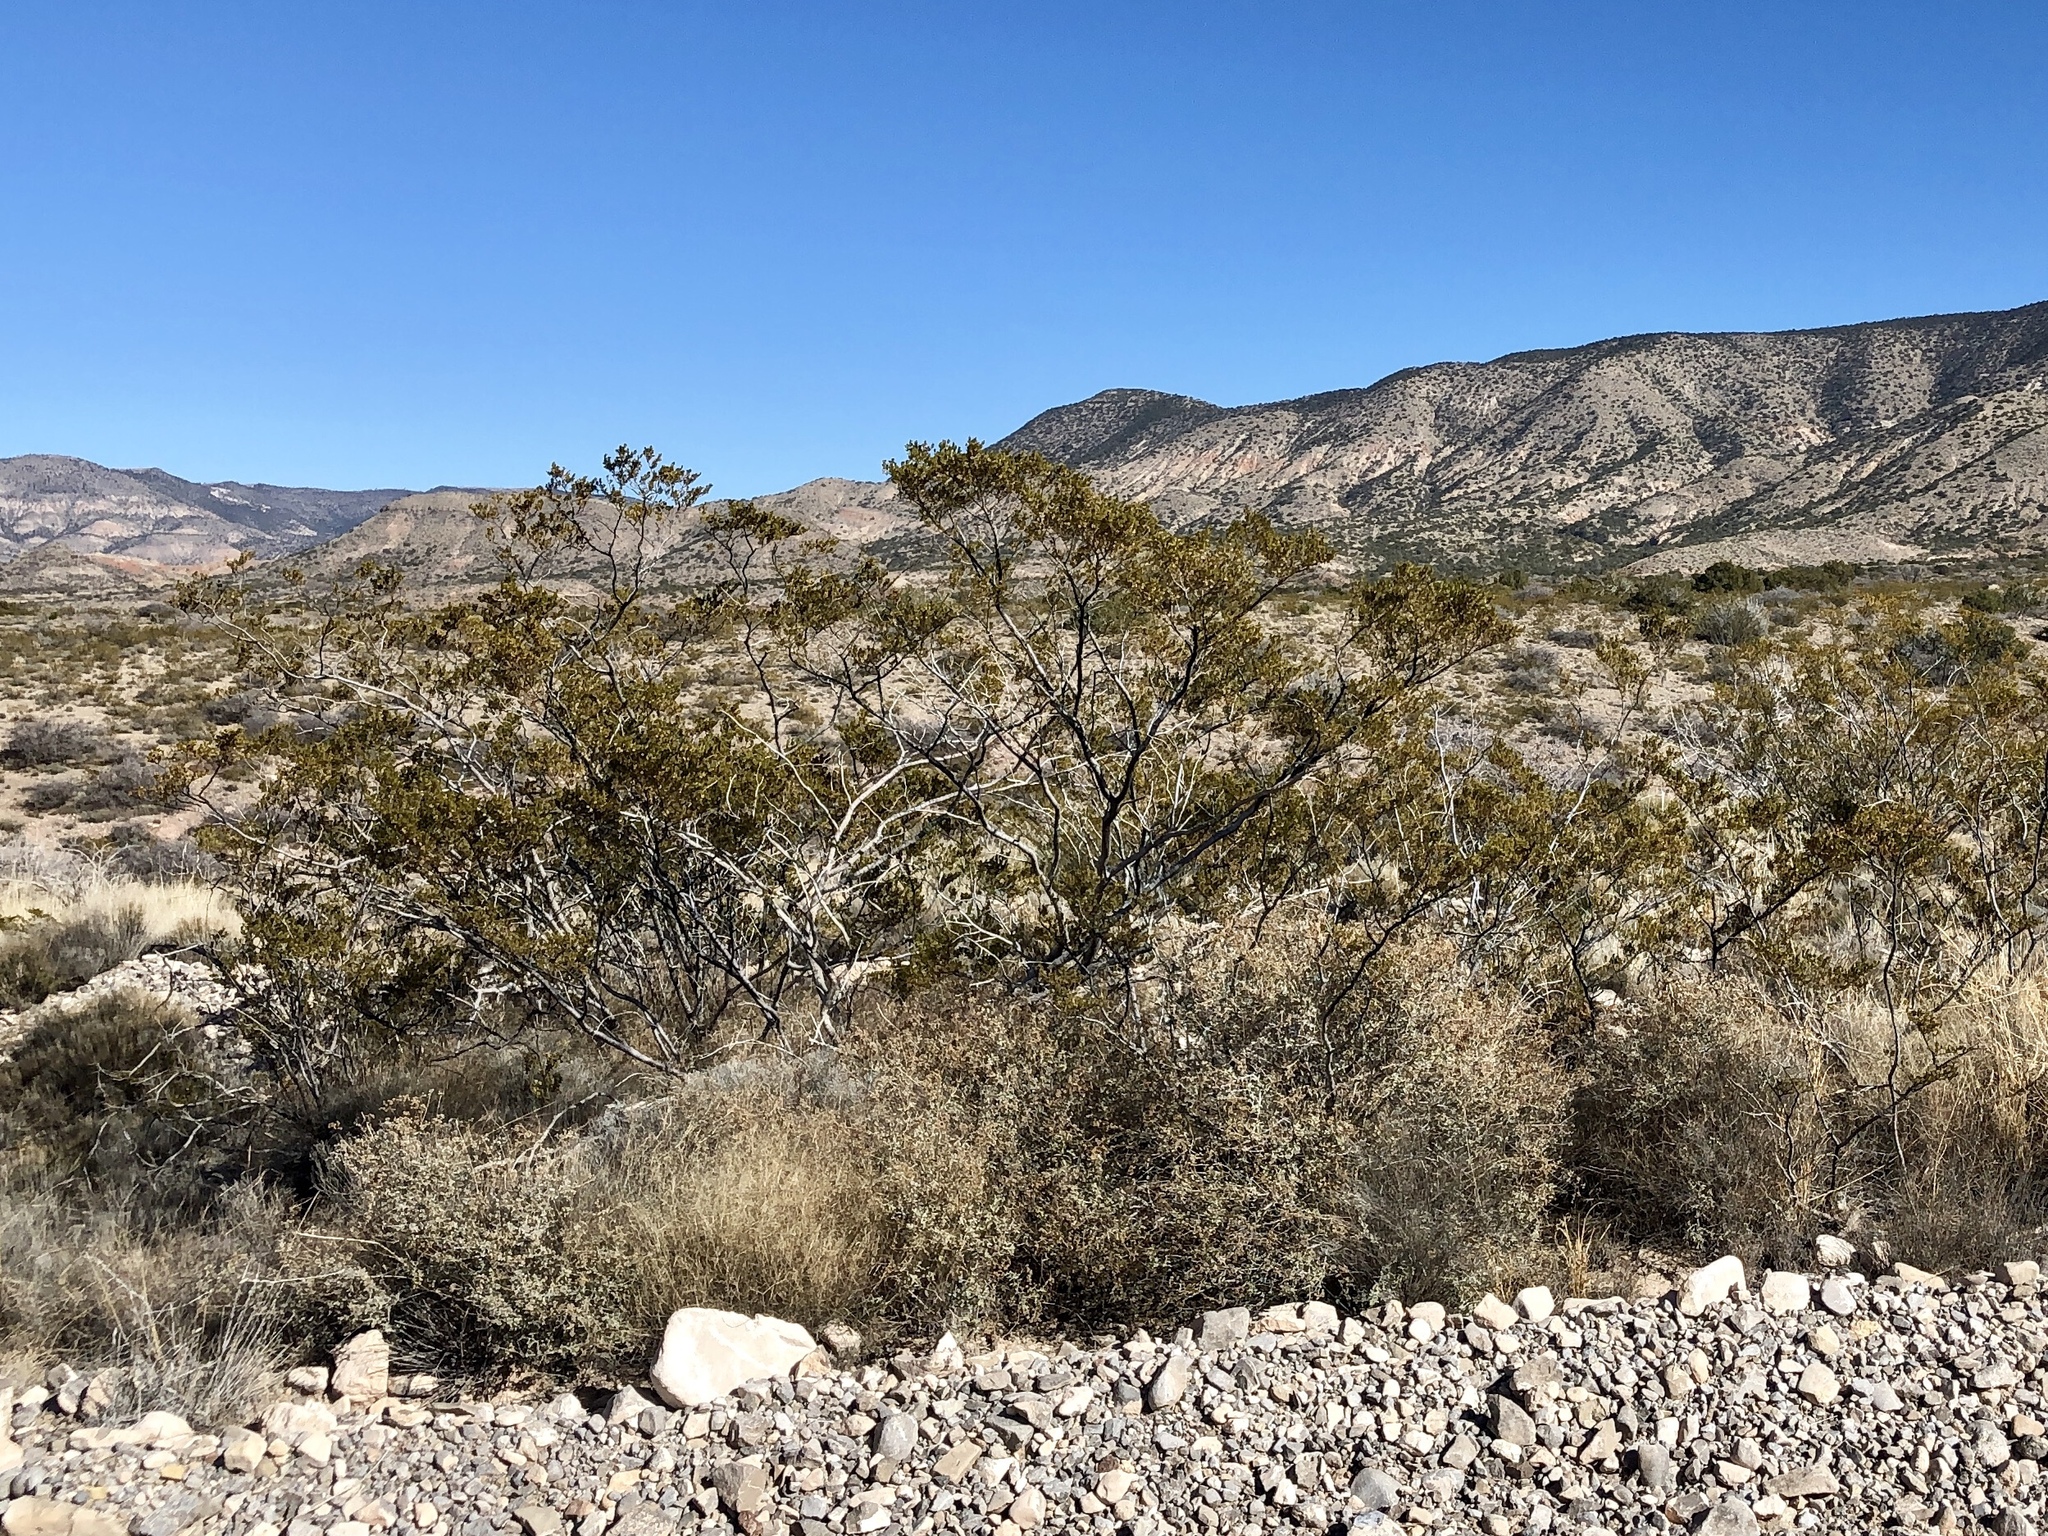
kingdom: Plantae
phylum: Tracheophyta
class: Magnoliopsida
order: Zygophyllales
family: Zygophyllaceae
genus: Larrea
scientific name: Larrea tridentata
